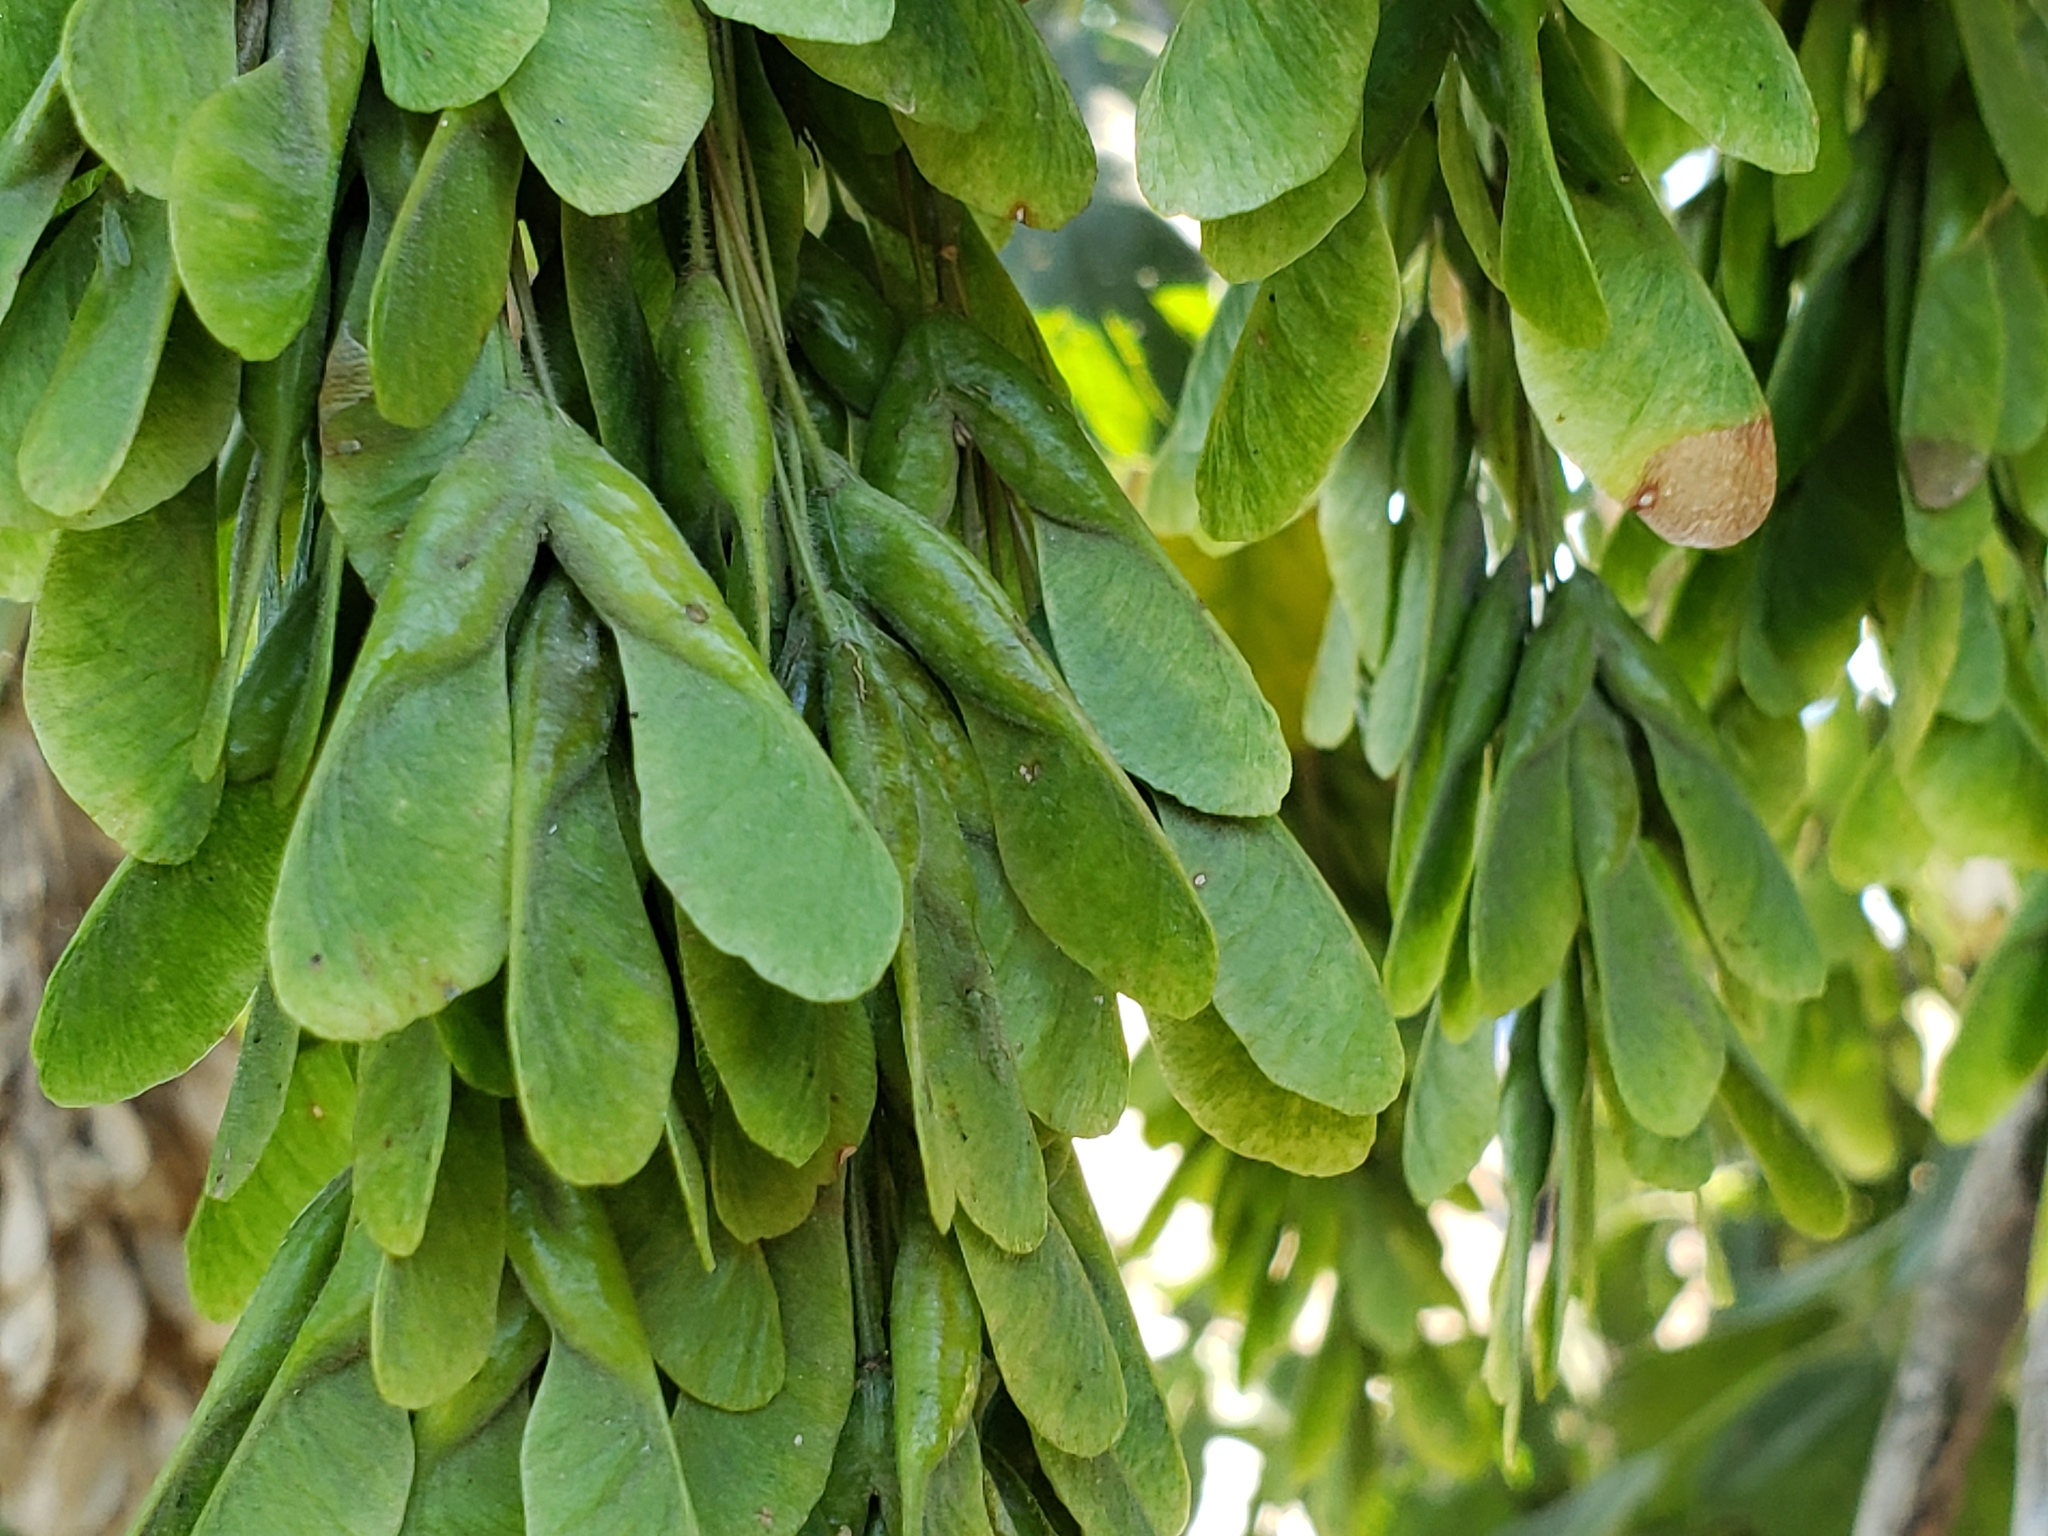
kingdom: Plantae
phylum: Tracheophyta
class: Magnoliopsida
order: Sapindales
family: Sapindaceae
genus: Acer
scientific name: Acer negundo
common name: Ashleaf maple
